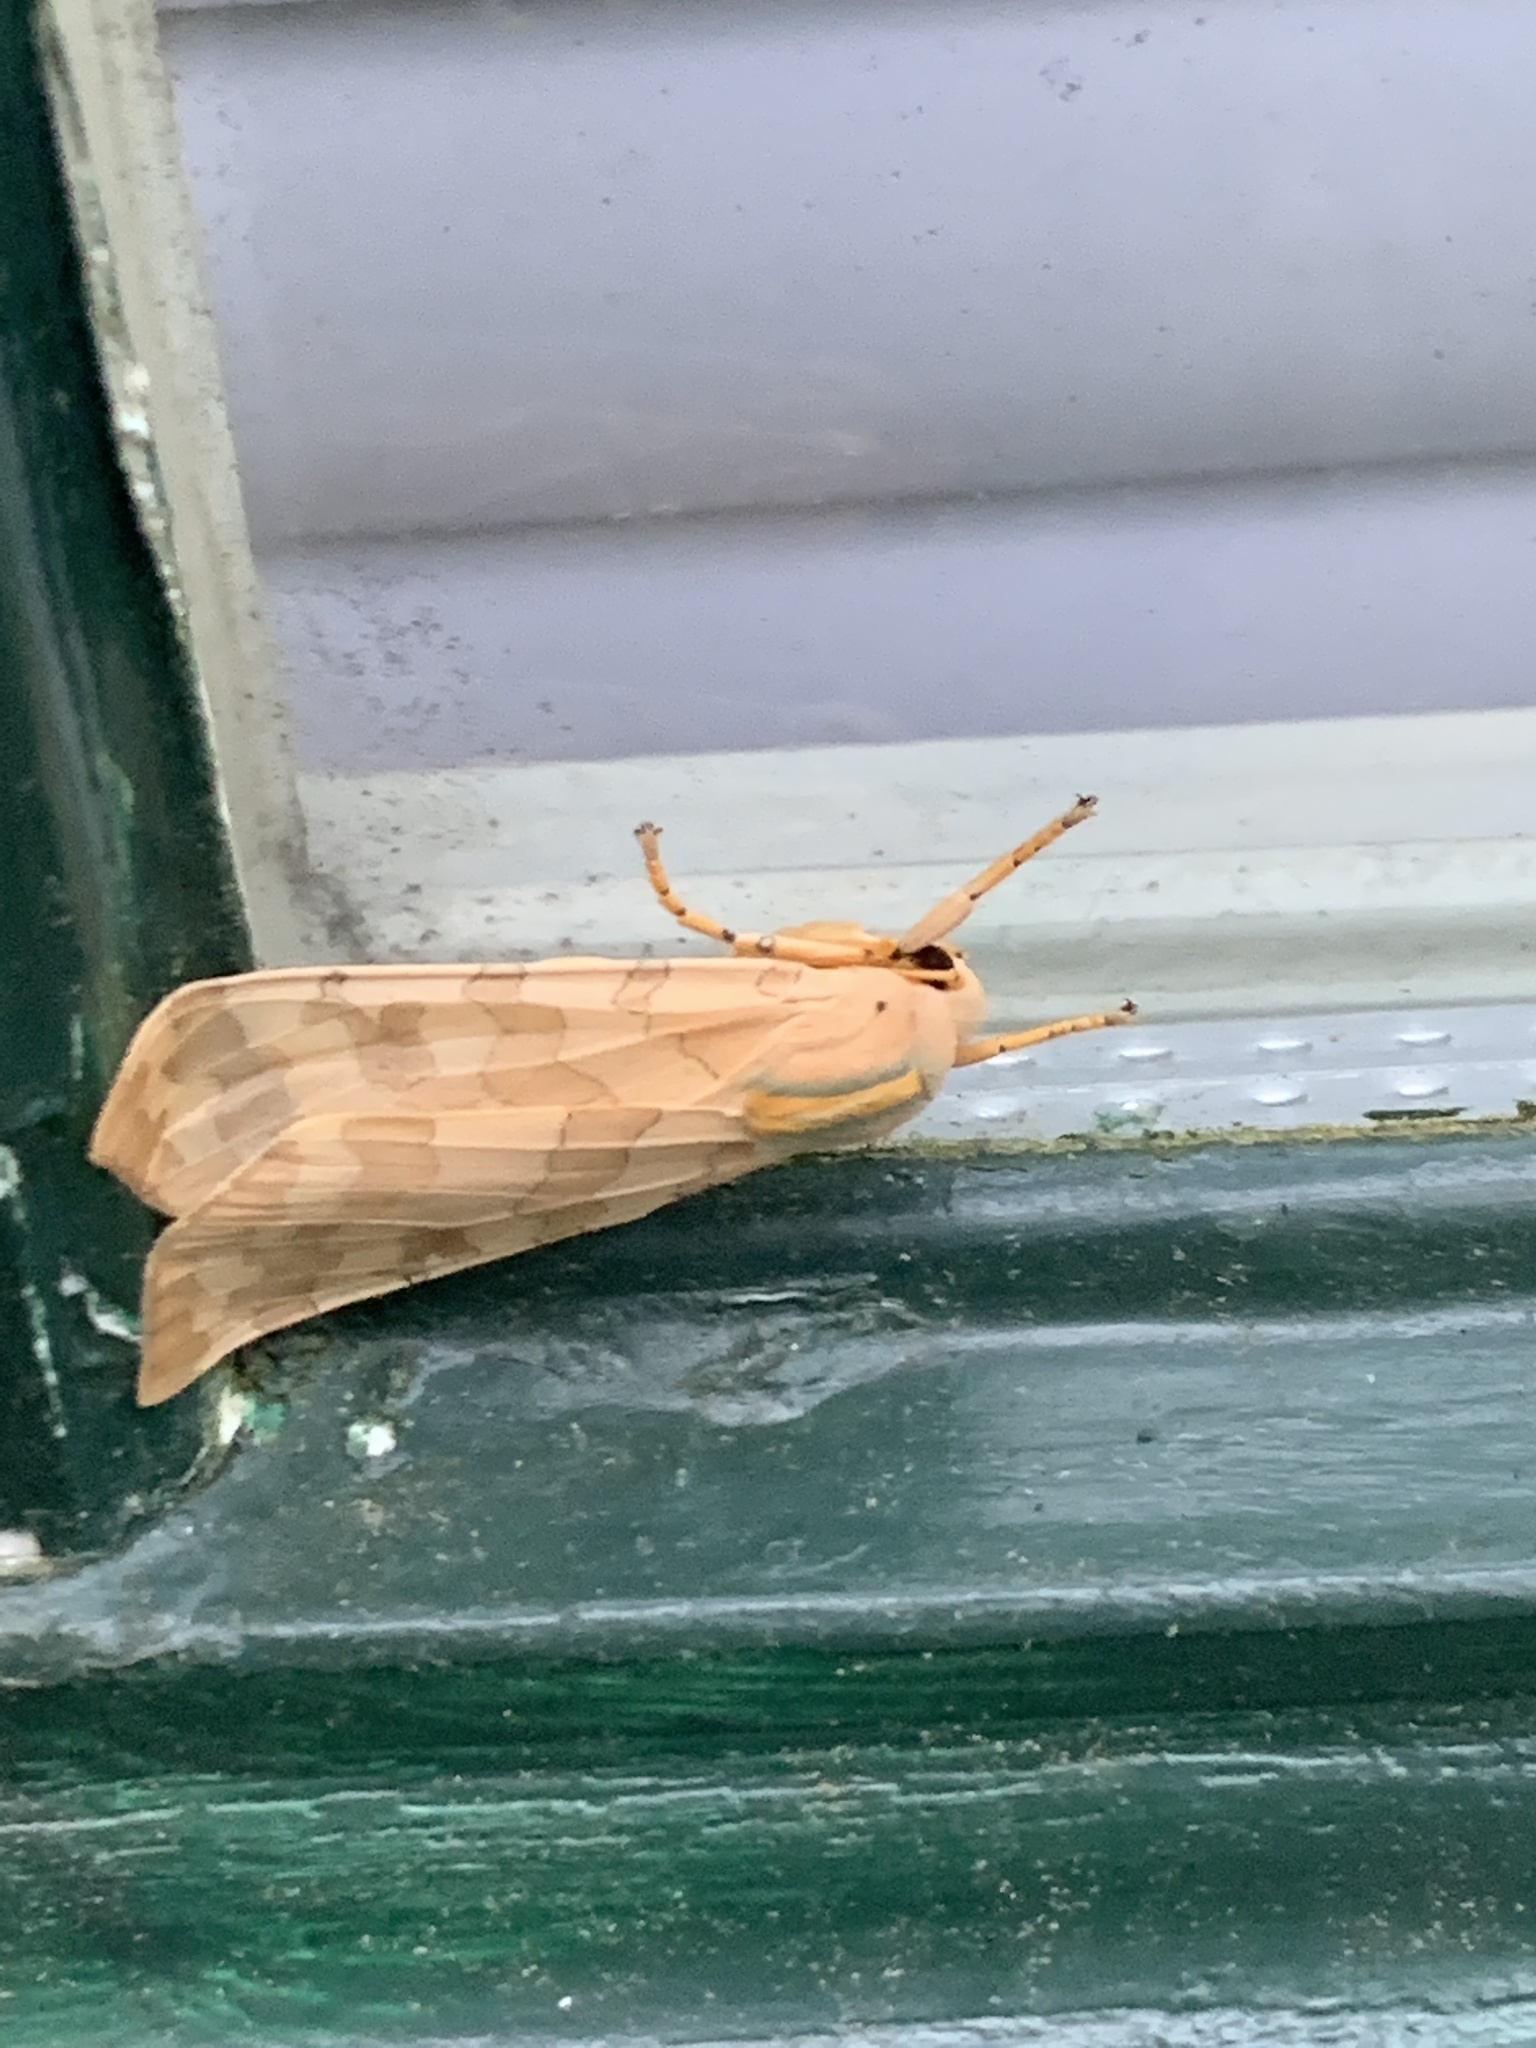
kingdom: Animalia
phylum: Arthropoda
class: Insecta
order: Lepidoptera
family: Erebidae
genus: Halysidota
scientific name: Halysidota
